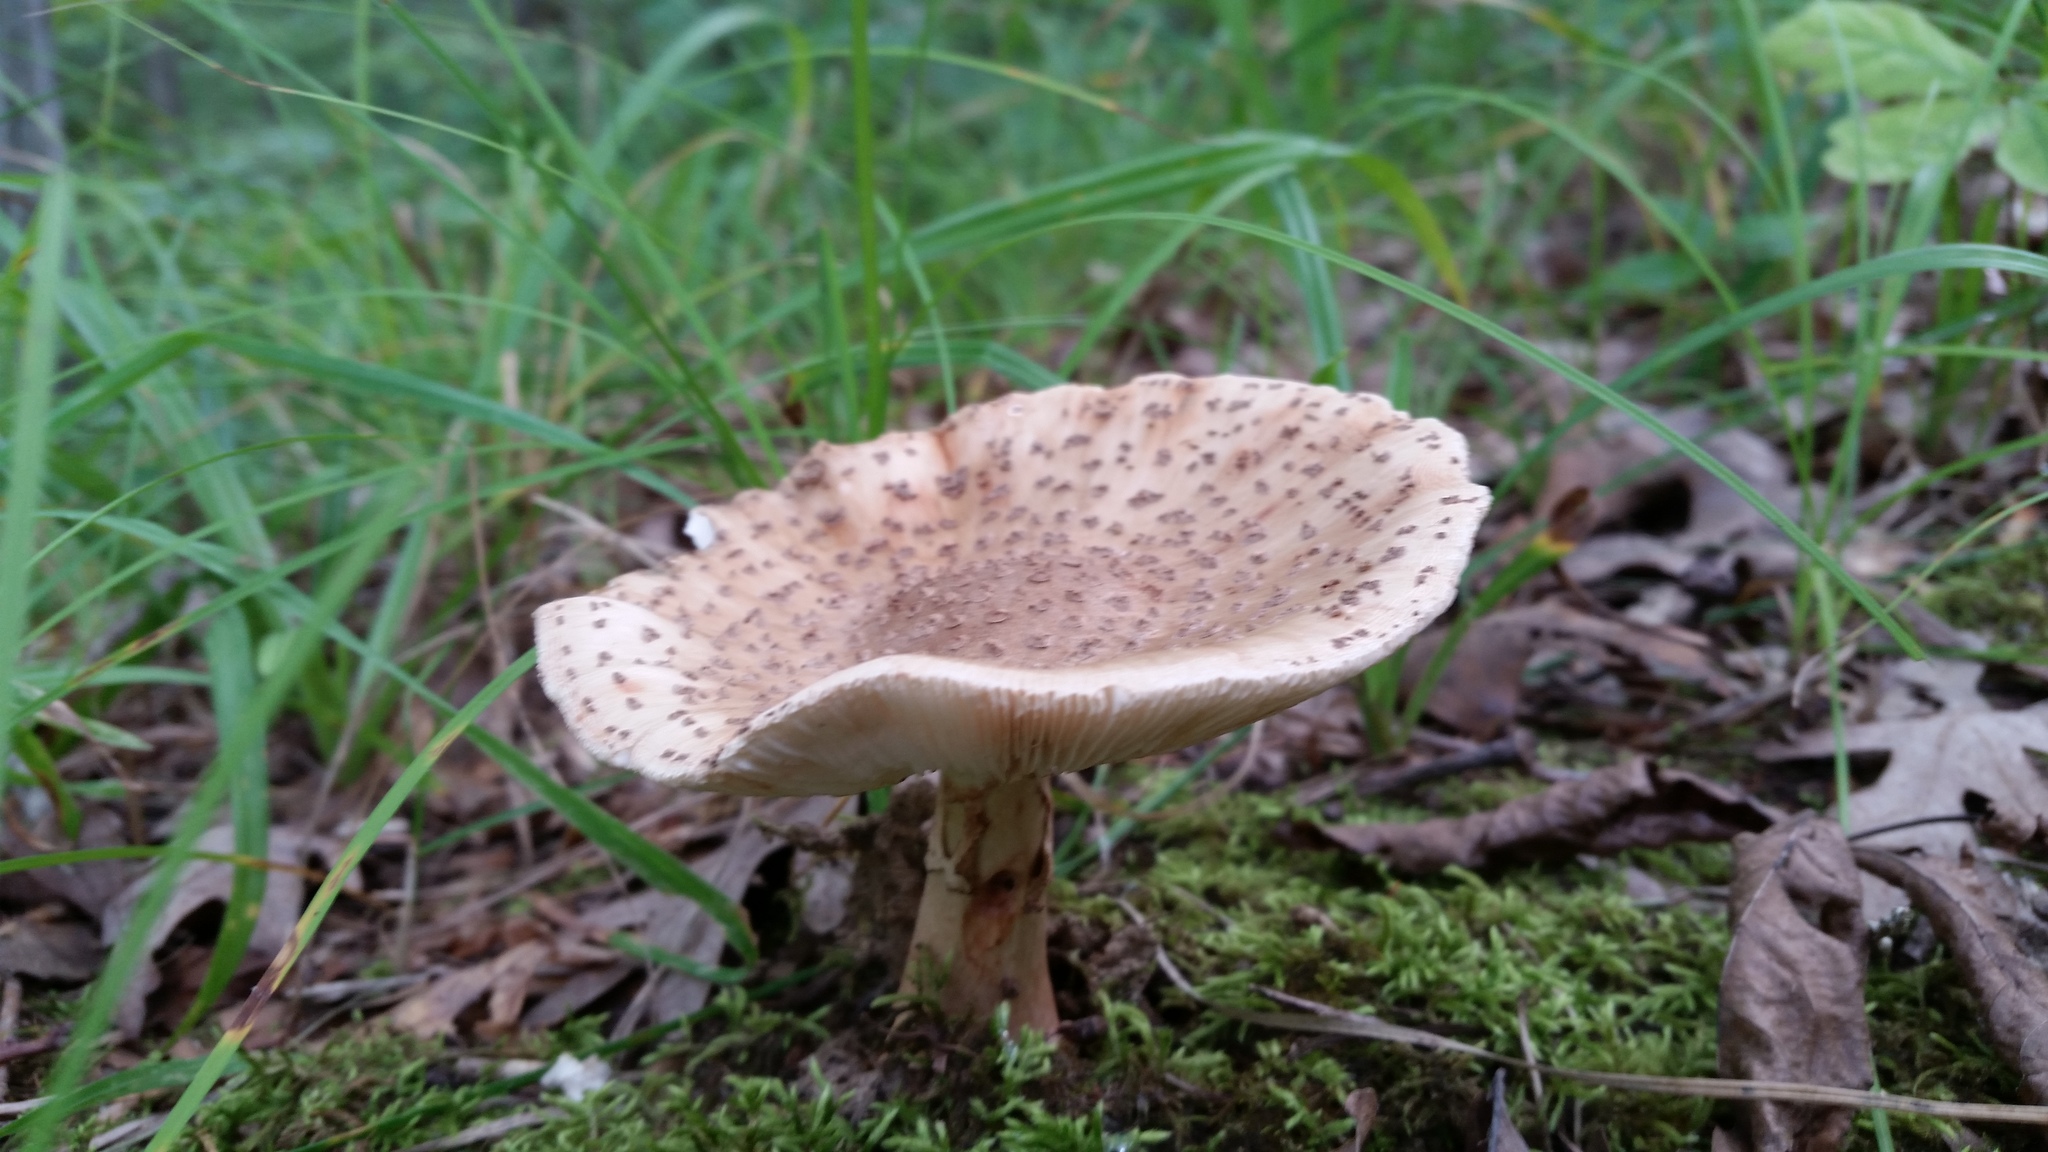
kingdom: Fungi
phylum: Basidiomycota
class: Agaricomycetes
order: Agaricales
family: Amanitaceae
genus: Amanita
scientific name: Amanita rubescens
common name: Blusher
